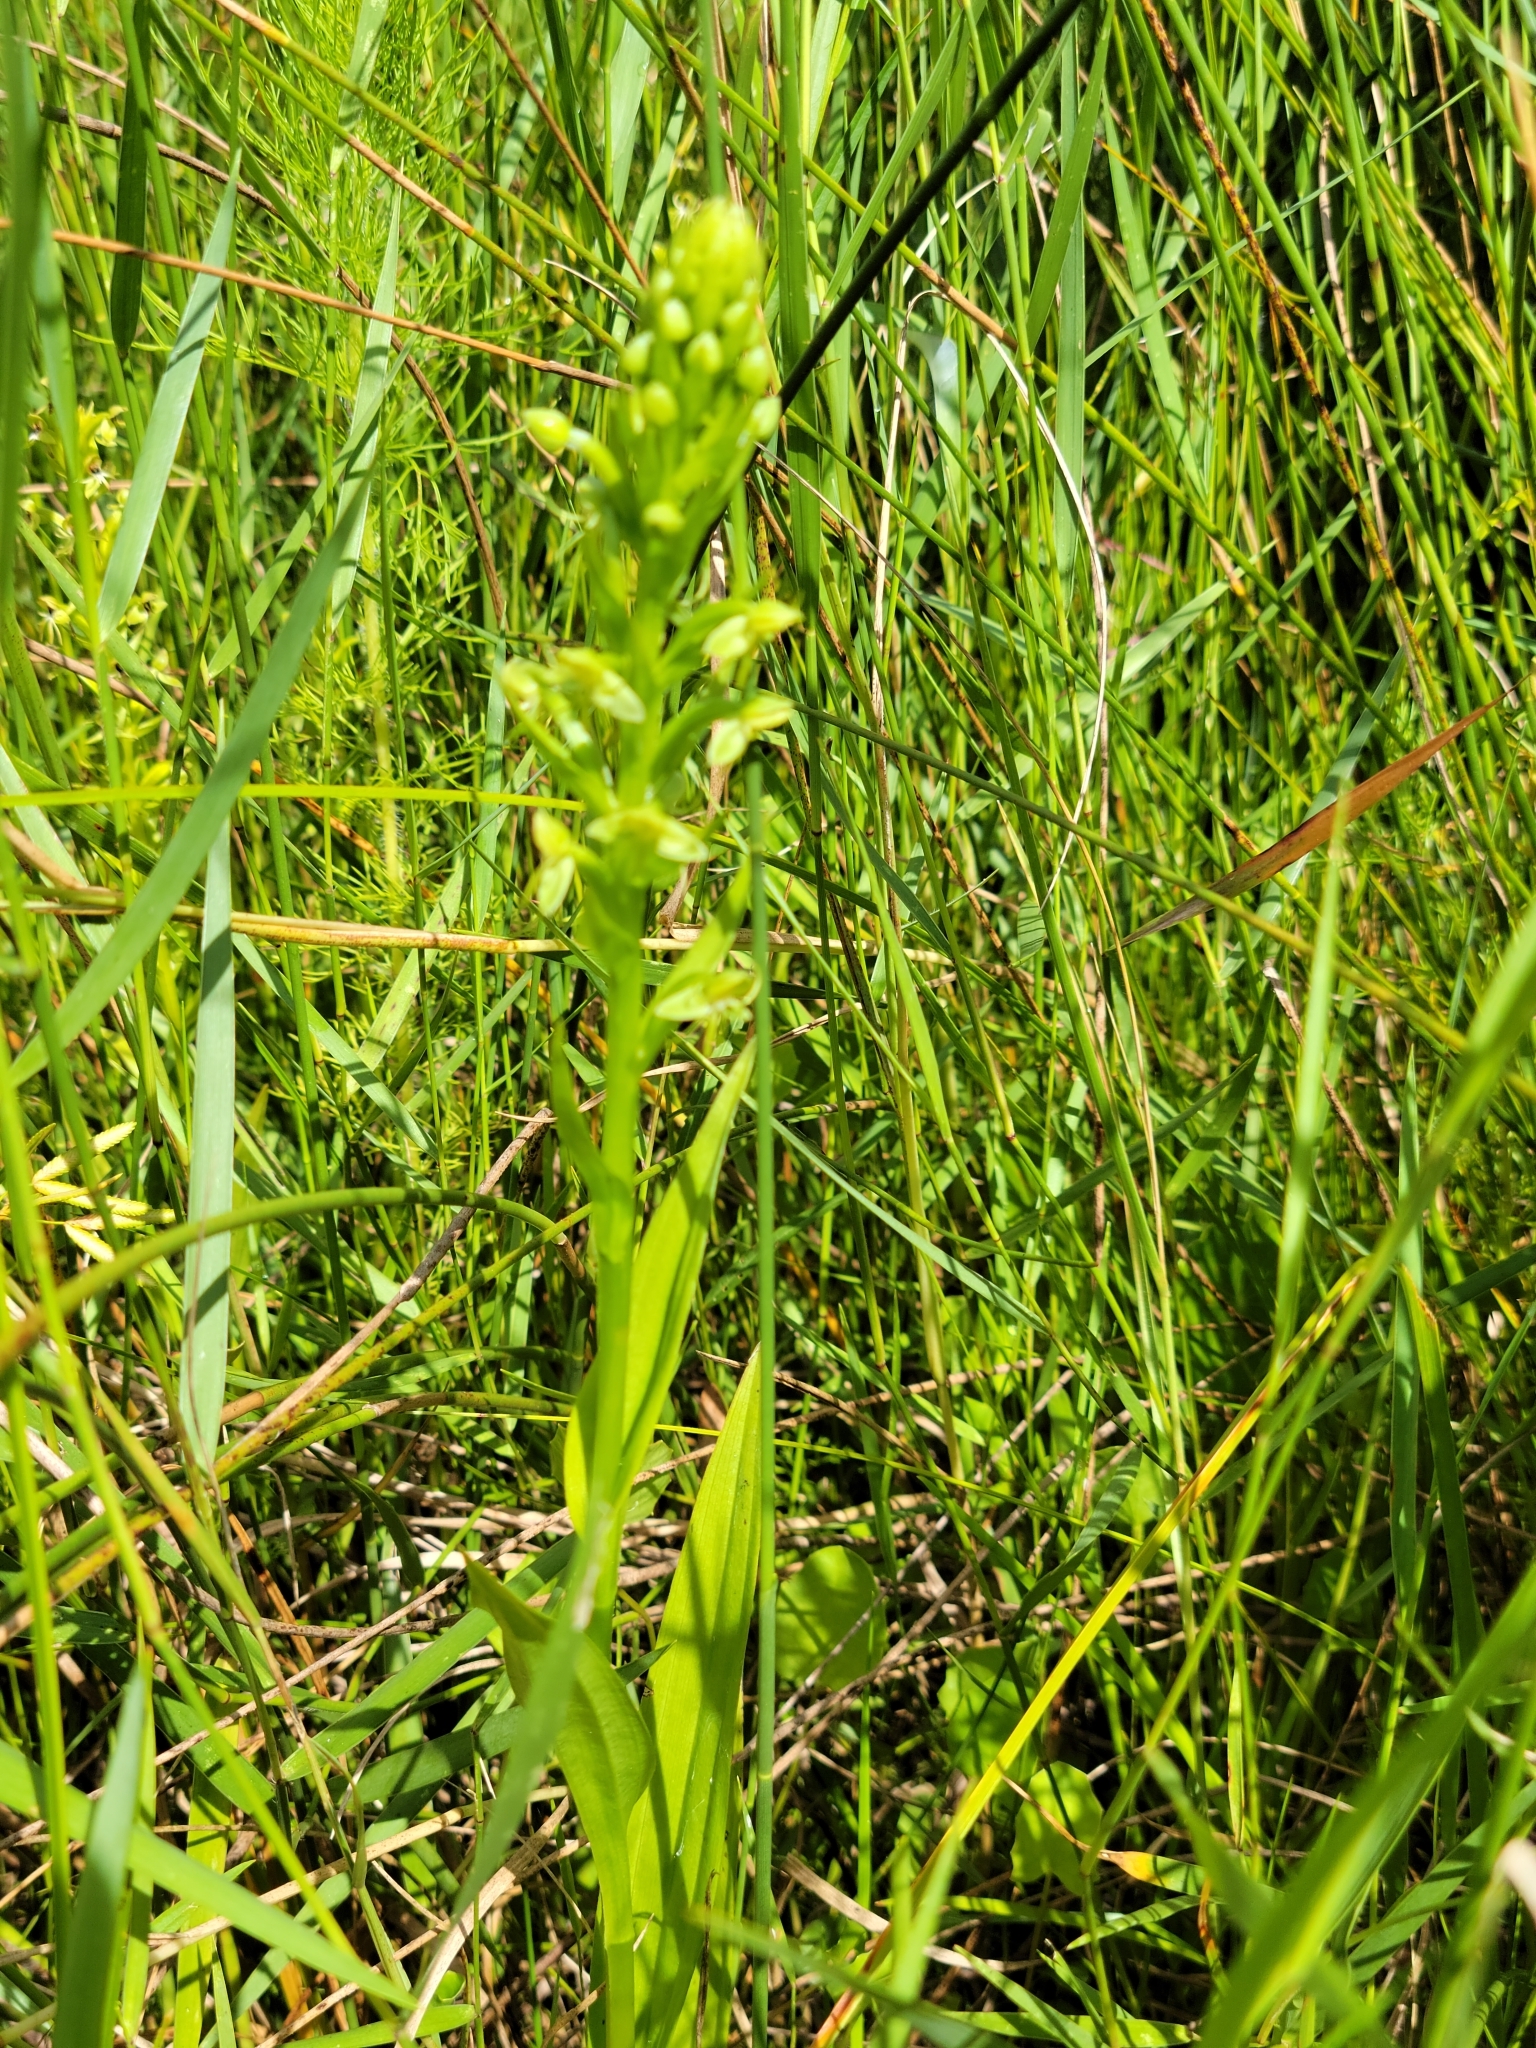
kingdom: Plantae
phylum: Tracheophyta
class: Liliopsida
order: Asparagales
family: Orchidaceae
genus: Habenaria
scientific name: Habenaria repens
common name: Water orchid
